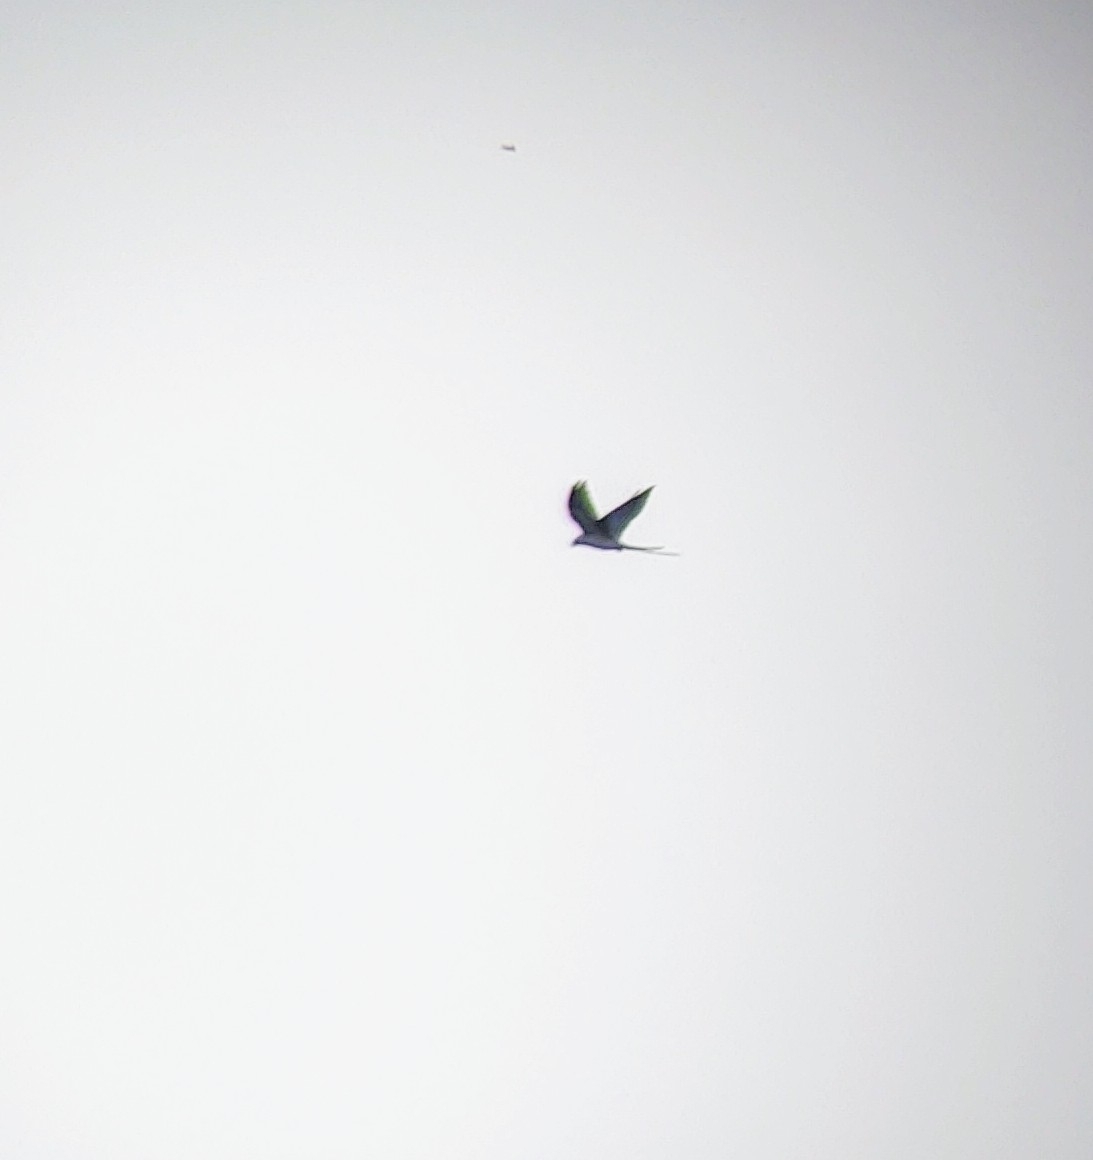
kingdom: Animalia
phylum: Chordata
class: Aves
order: Accipitriformes
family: Accipitridae
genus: Elanoides
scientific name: Elanoides forficatus
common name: Swallow-tailed kite
